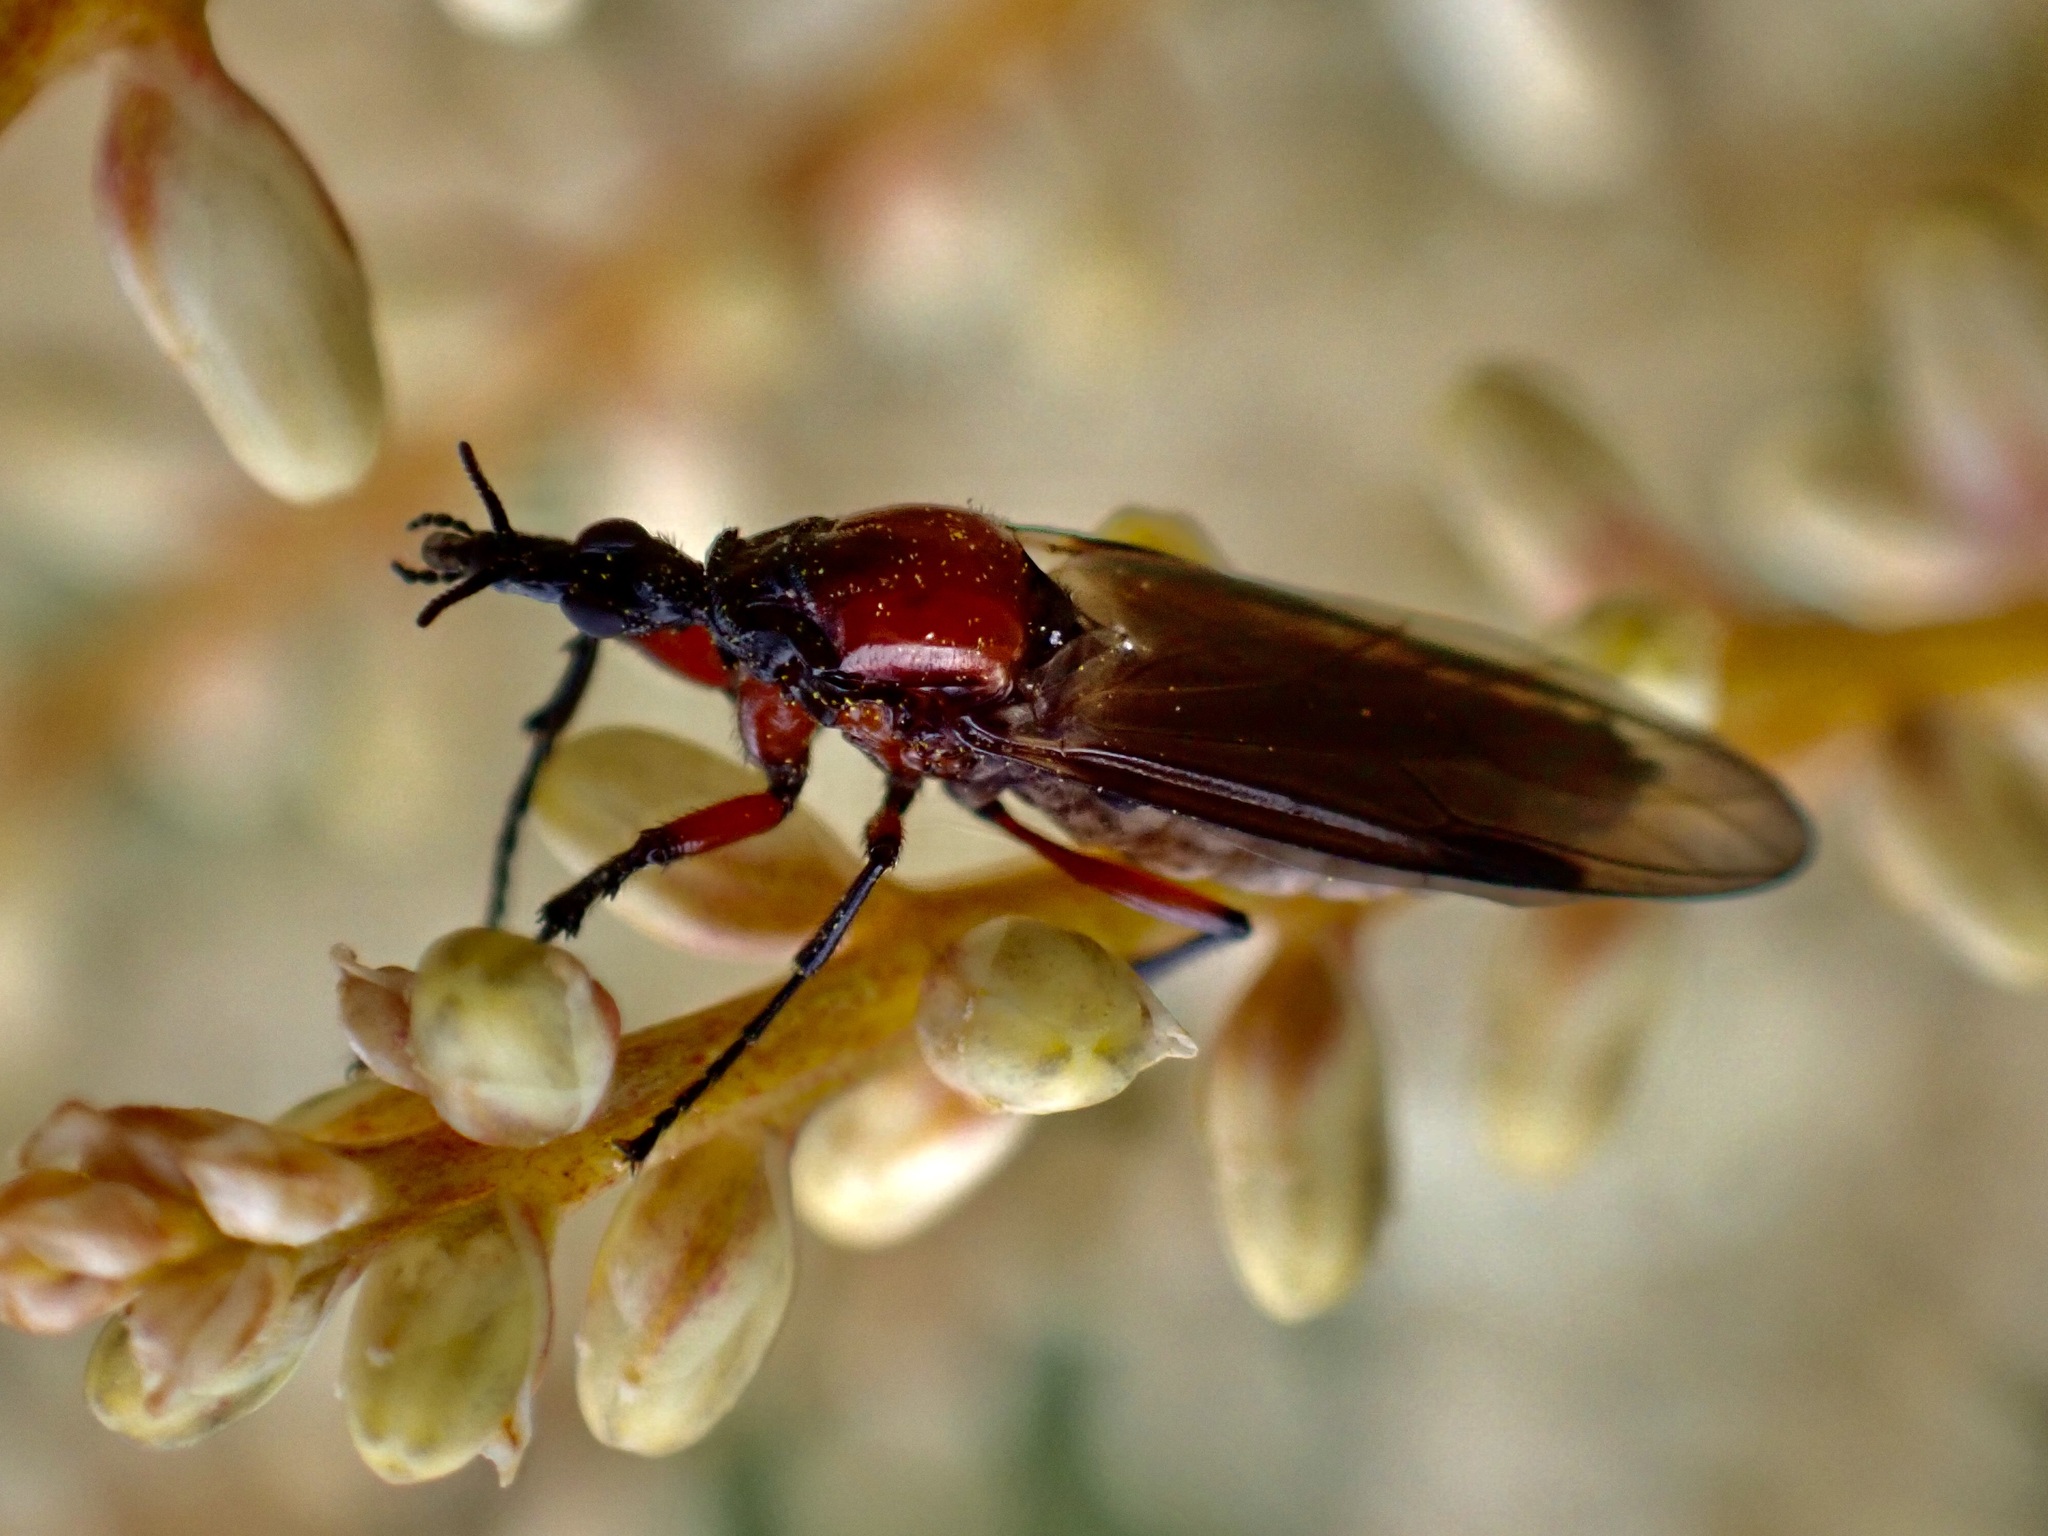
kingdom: Animalia
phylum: Arthropoda
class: Insecta
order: Diptera
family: Bibionidae
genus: Dilophus
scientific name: Dilophus nigrostigma
